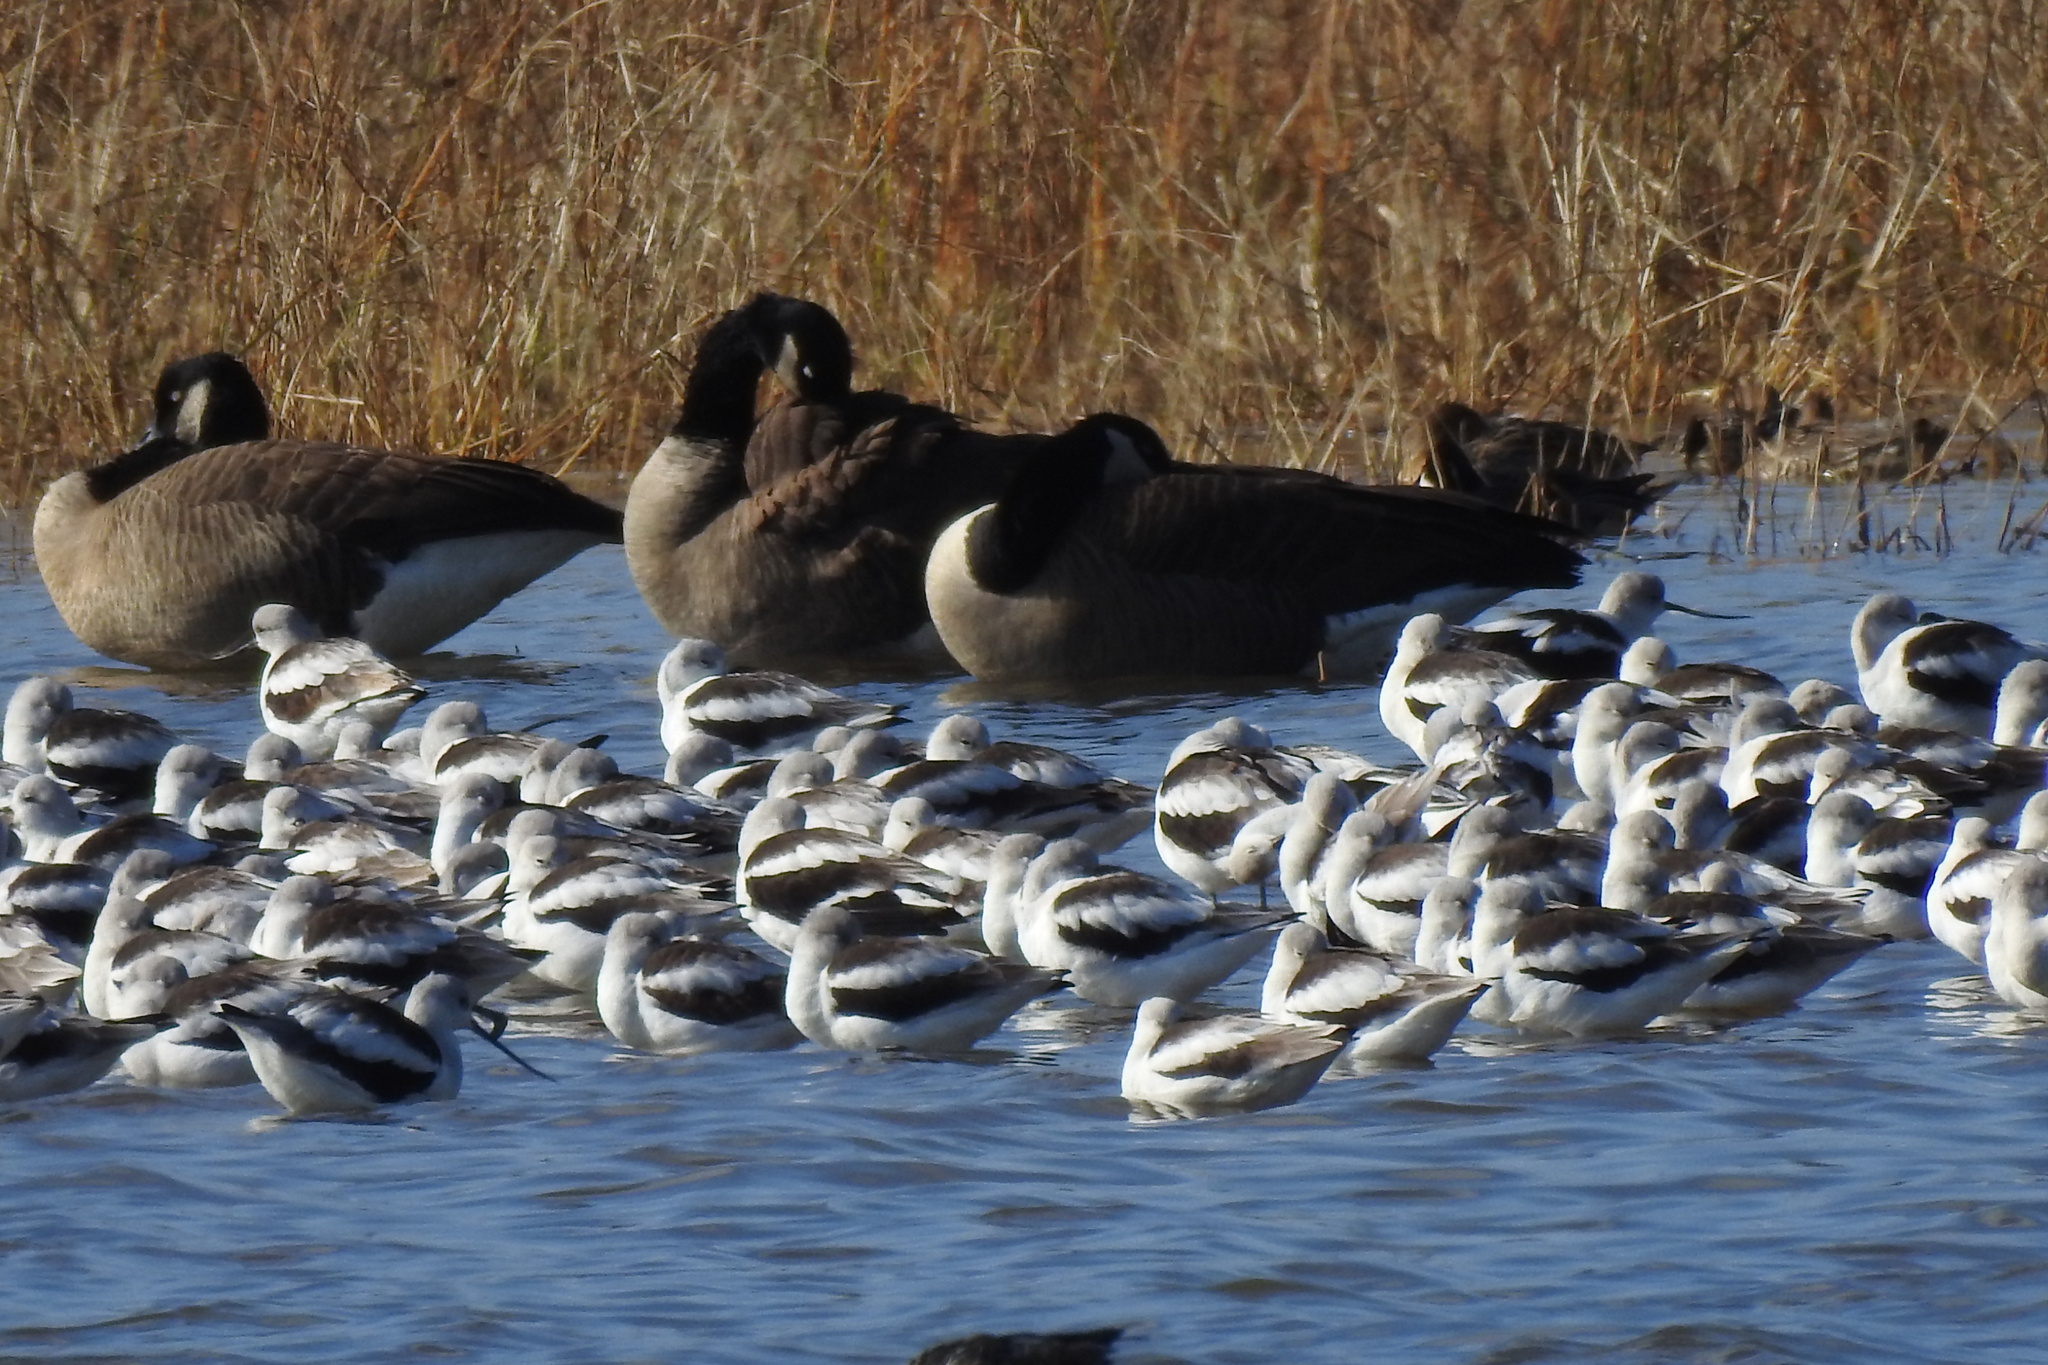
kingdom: Animalia
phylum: Chordata
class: Aves
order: Charadriiformes
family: Recurvirostridae
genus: Recurvirostra
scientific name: Recurvirostra americana
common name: American avocet
